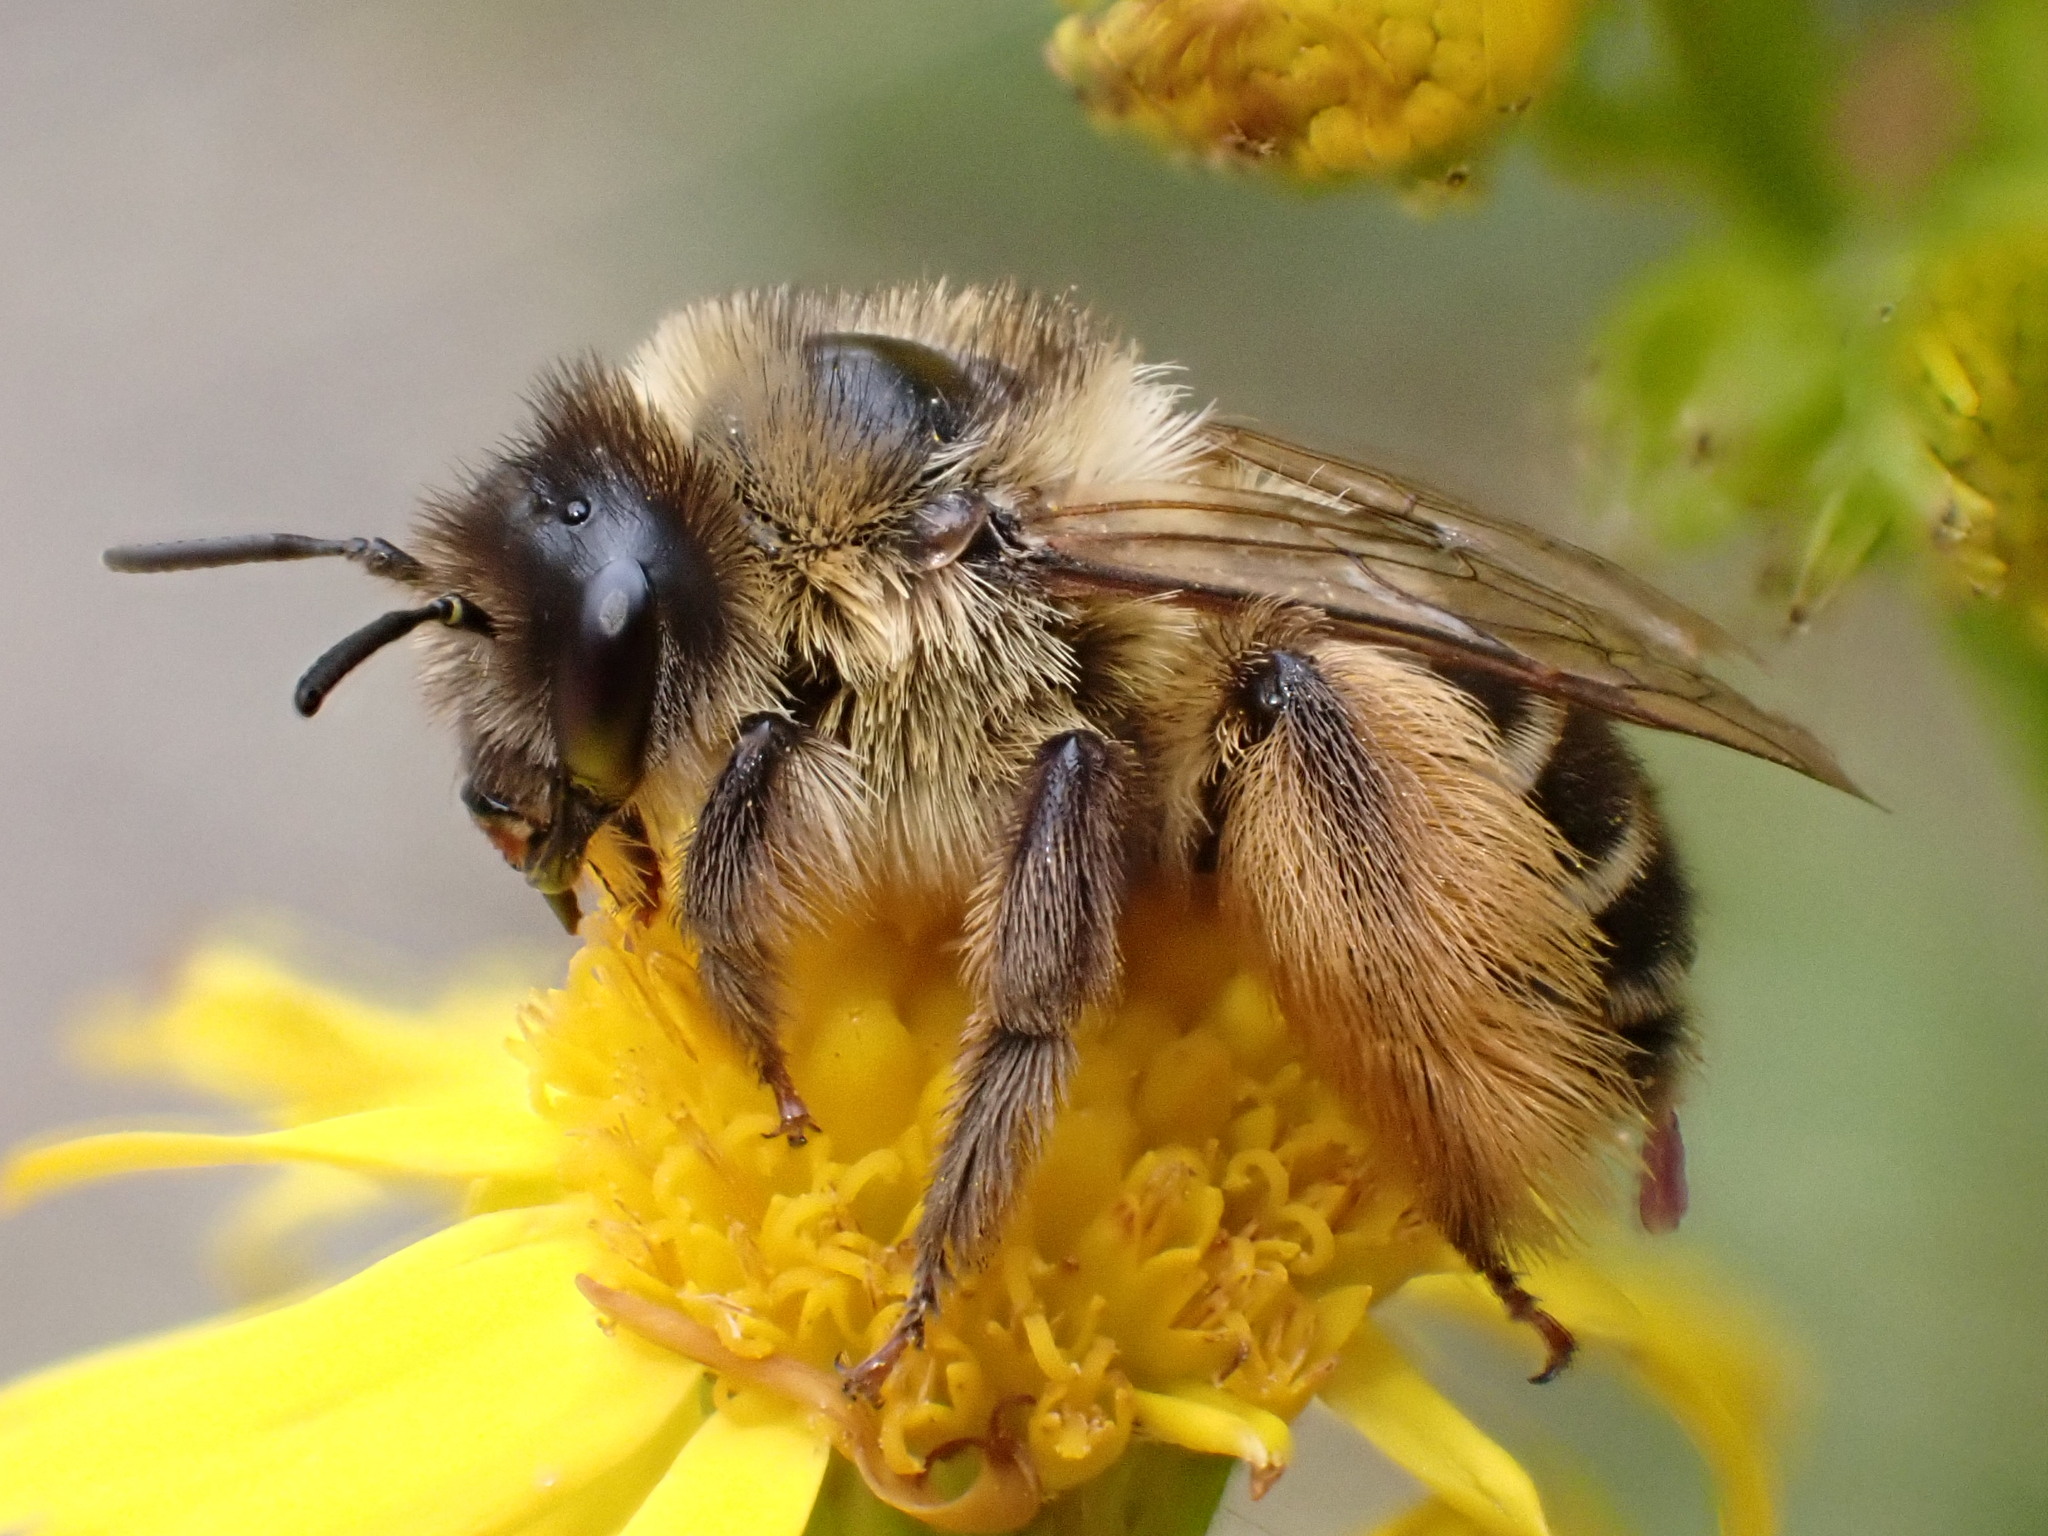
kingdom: Animalia
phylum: Arthropoda
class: Insecta
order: Hymenoptera
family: Melittidae
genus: Dasypoda
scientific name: Dasypoda hirtipes
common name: Pantaloon bee
